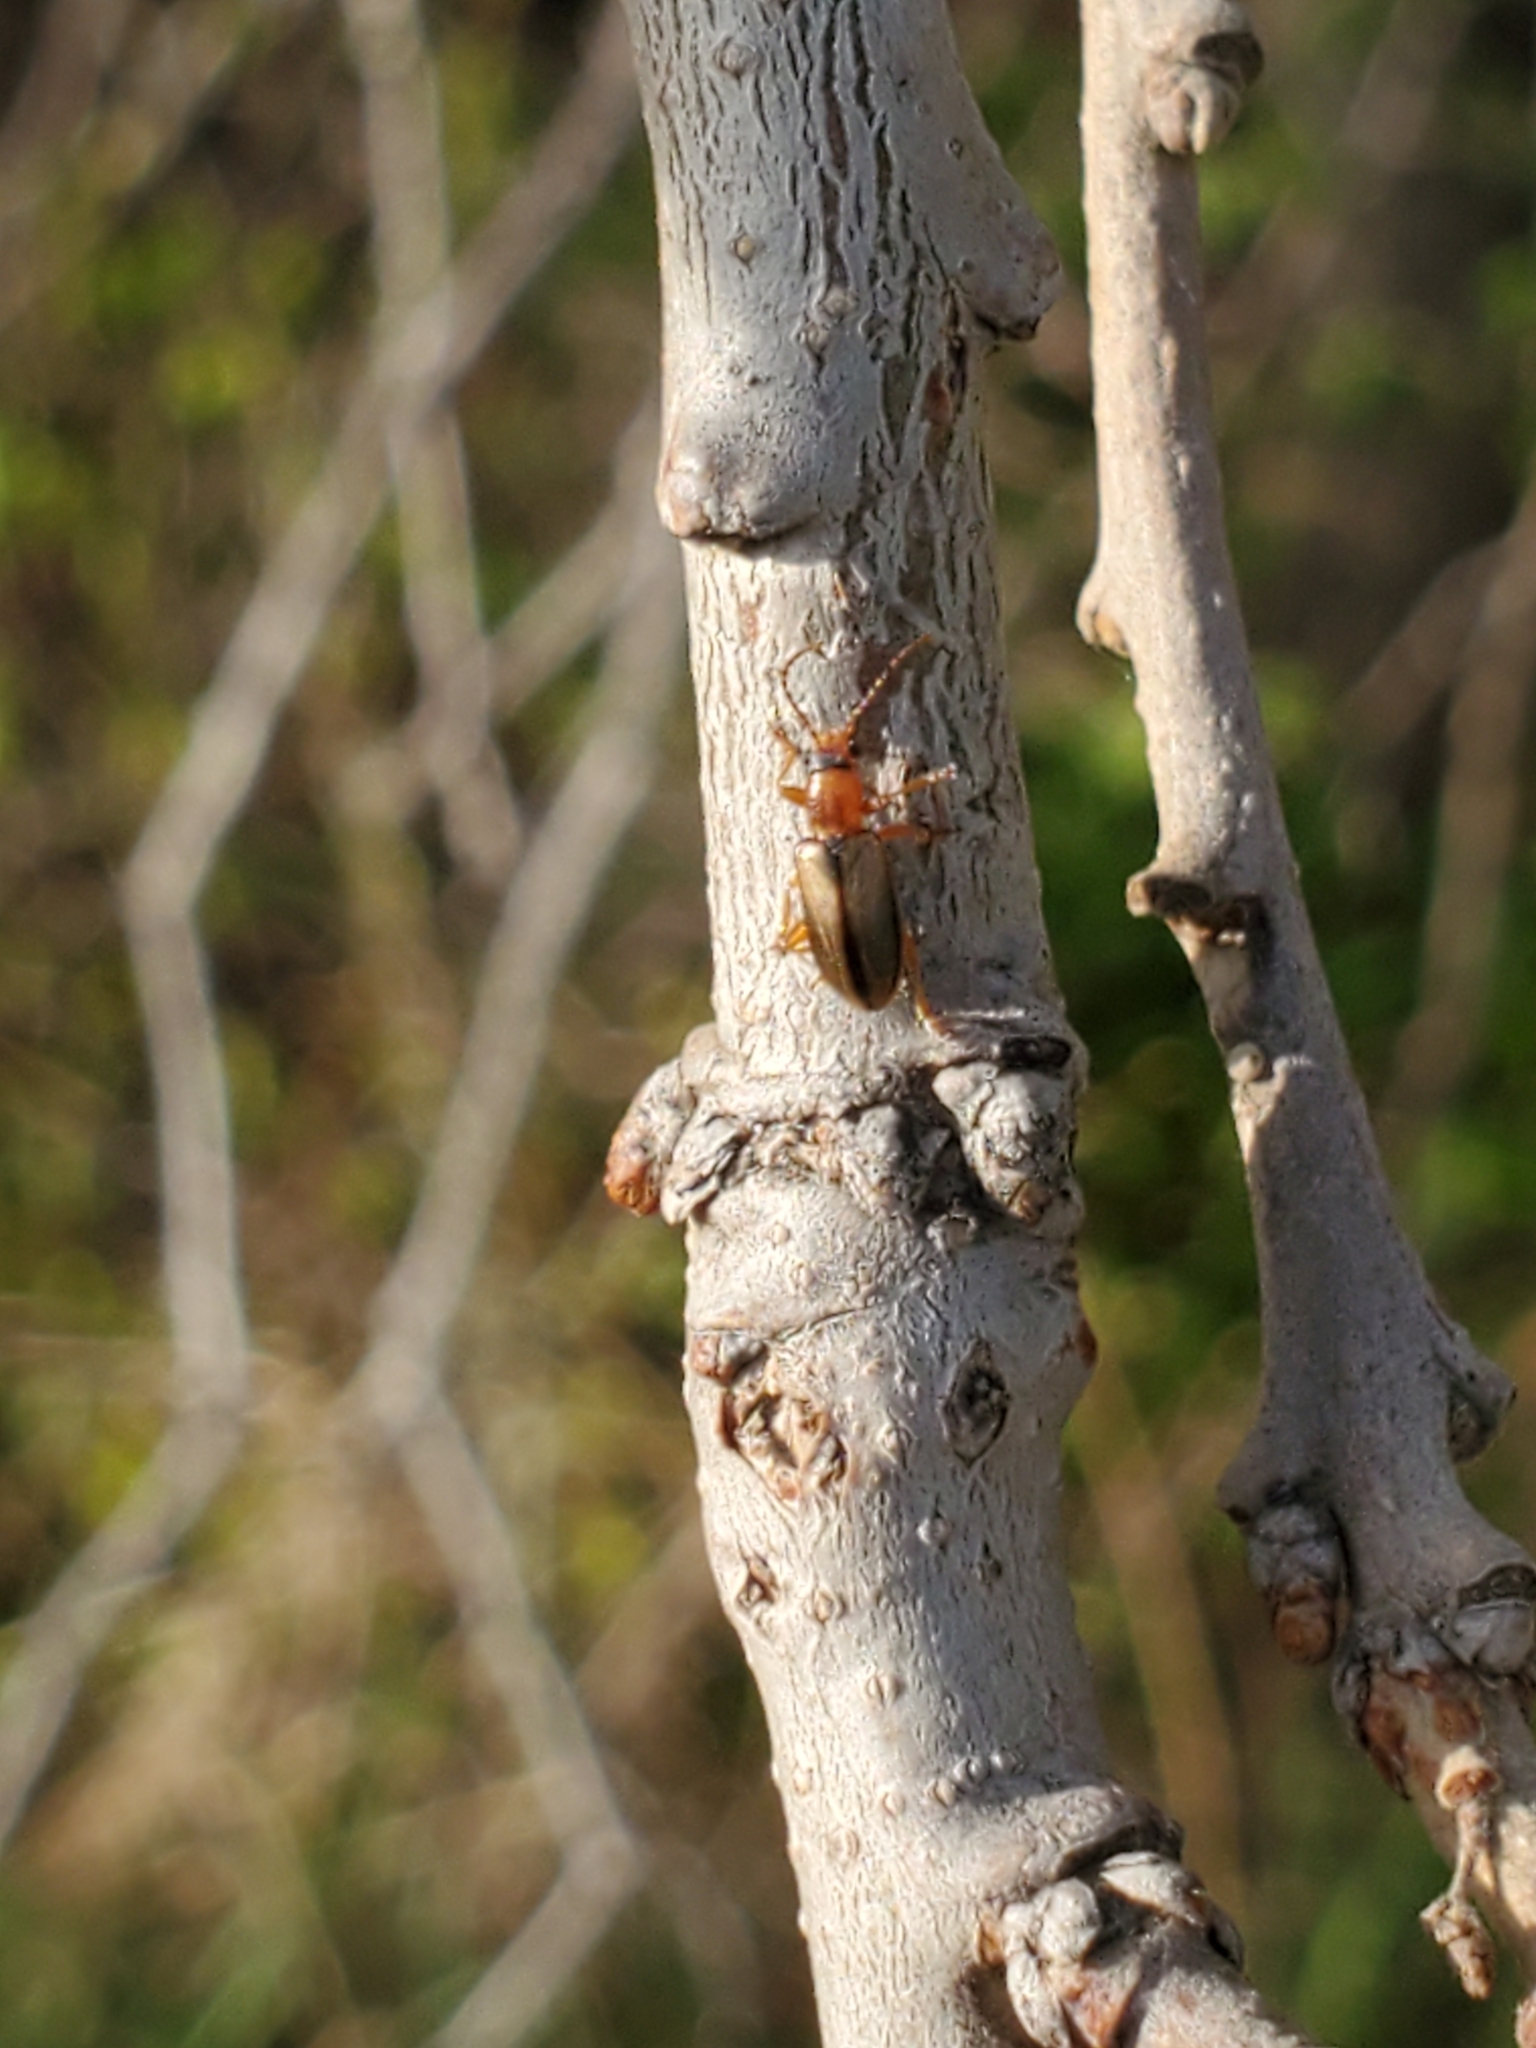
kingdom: Animalia
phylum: Arthropoda
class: Insecta
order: Coleoptera
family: Orsodacnidae
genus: Orsodacne
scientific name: Orsodacne atra
